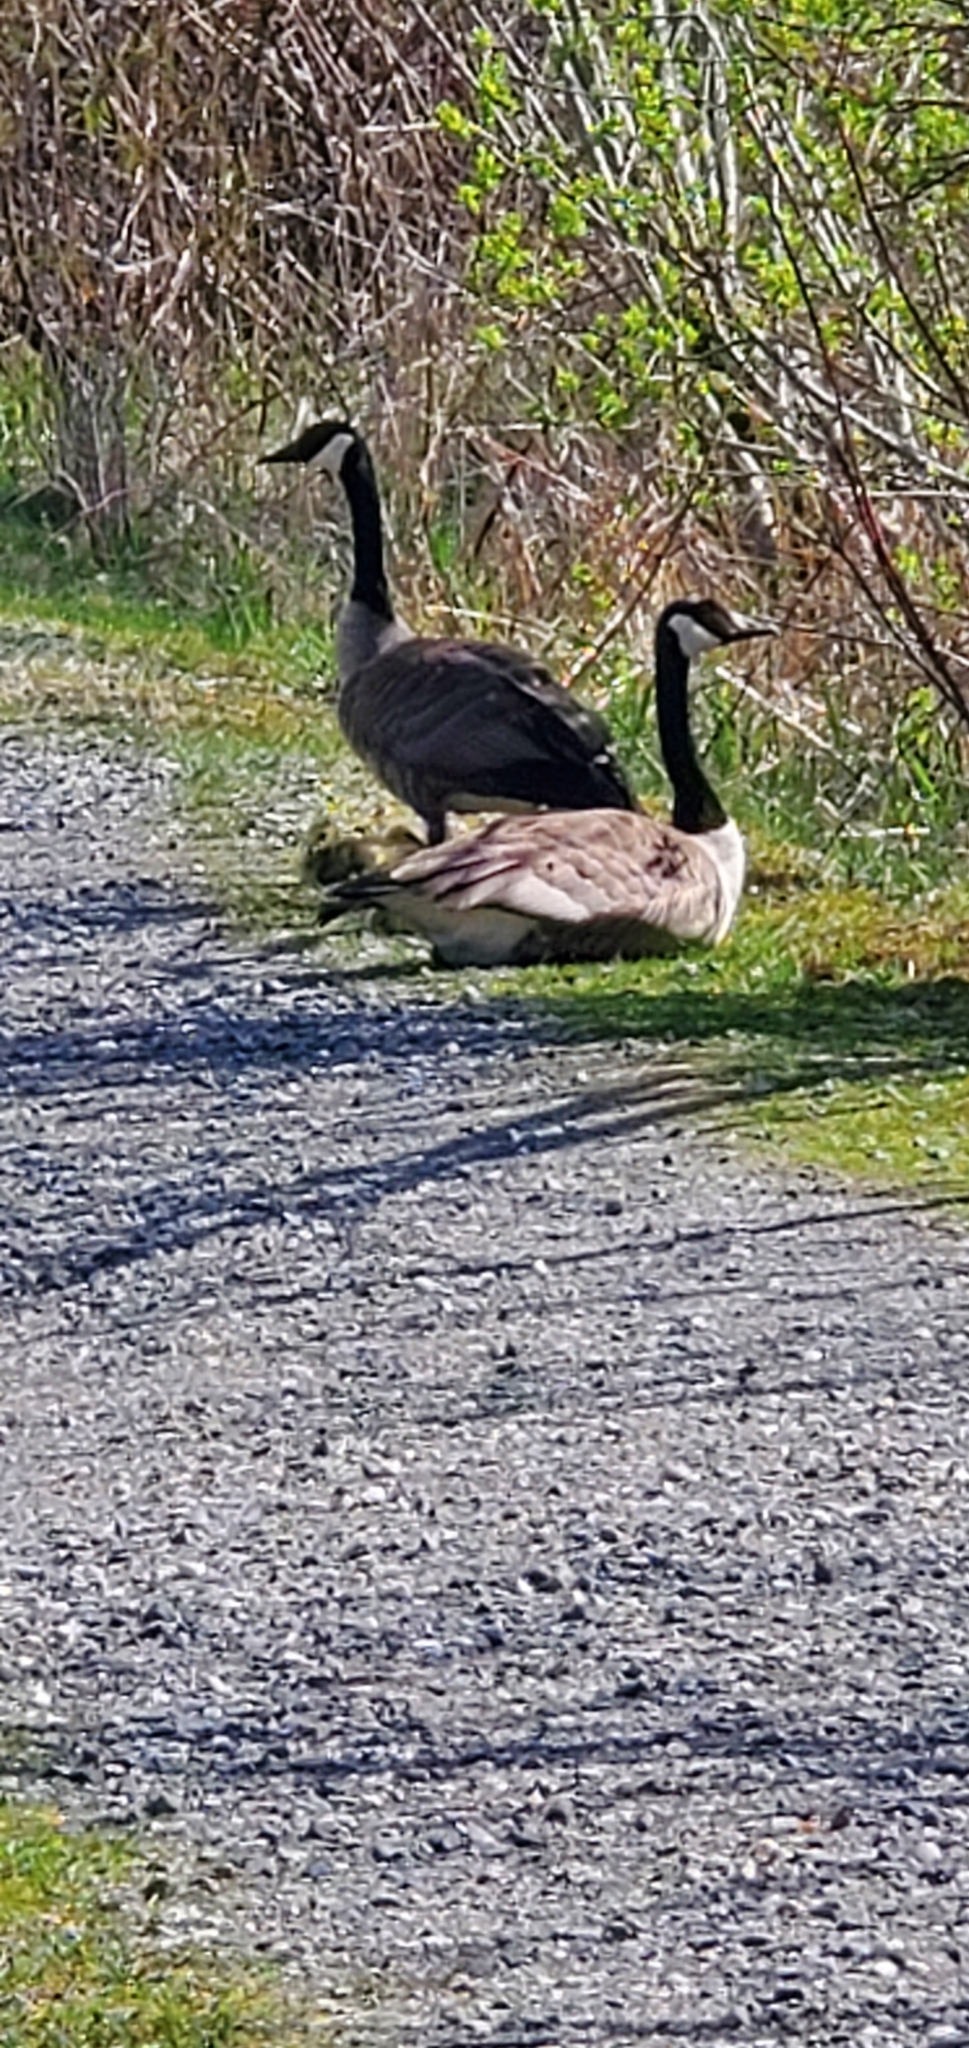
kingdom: Animalia
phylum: Chordata
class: Aves
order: Anseriformes
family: Anatidae
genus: Branta
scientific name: Branta canadensis
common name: Canada goose
